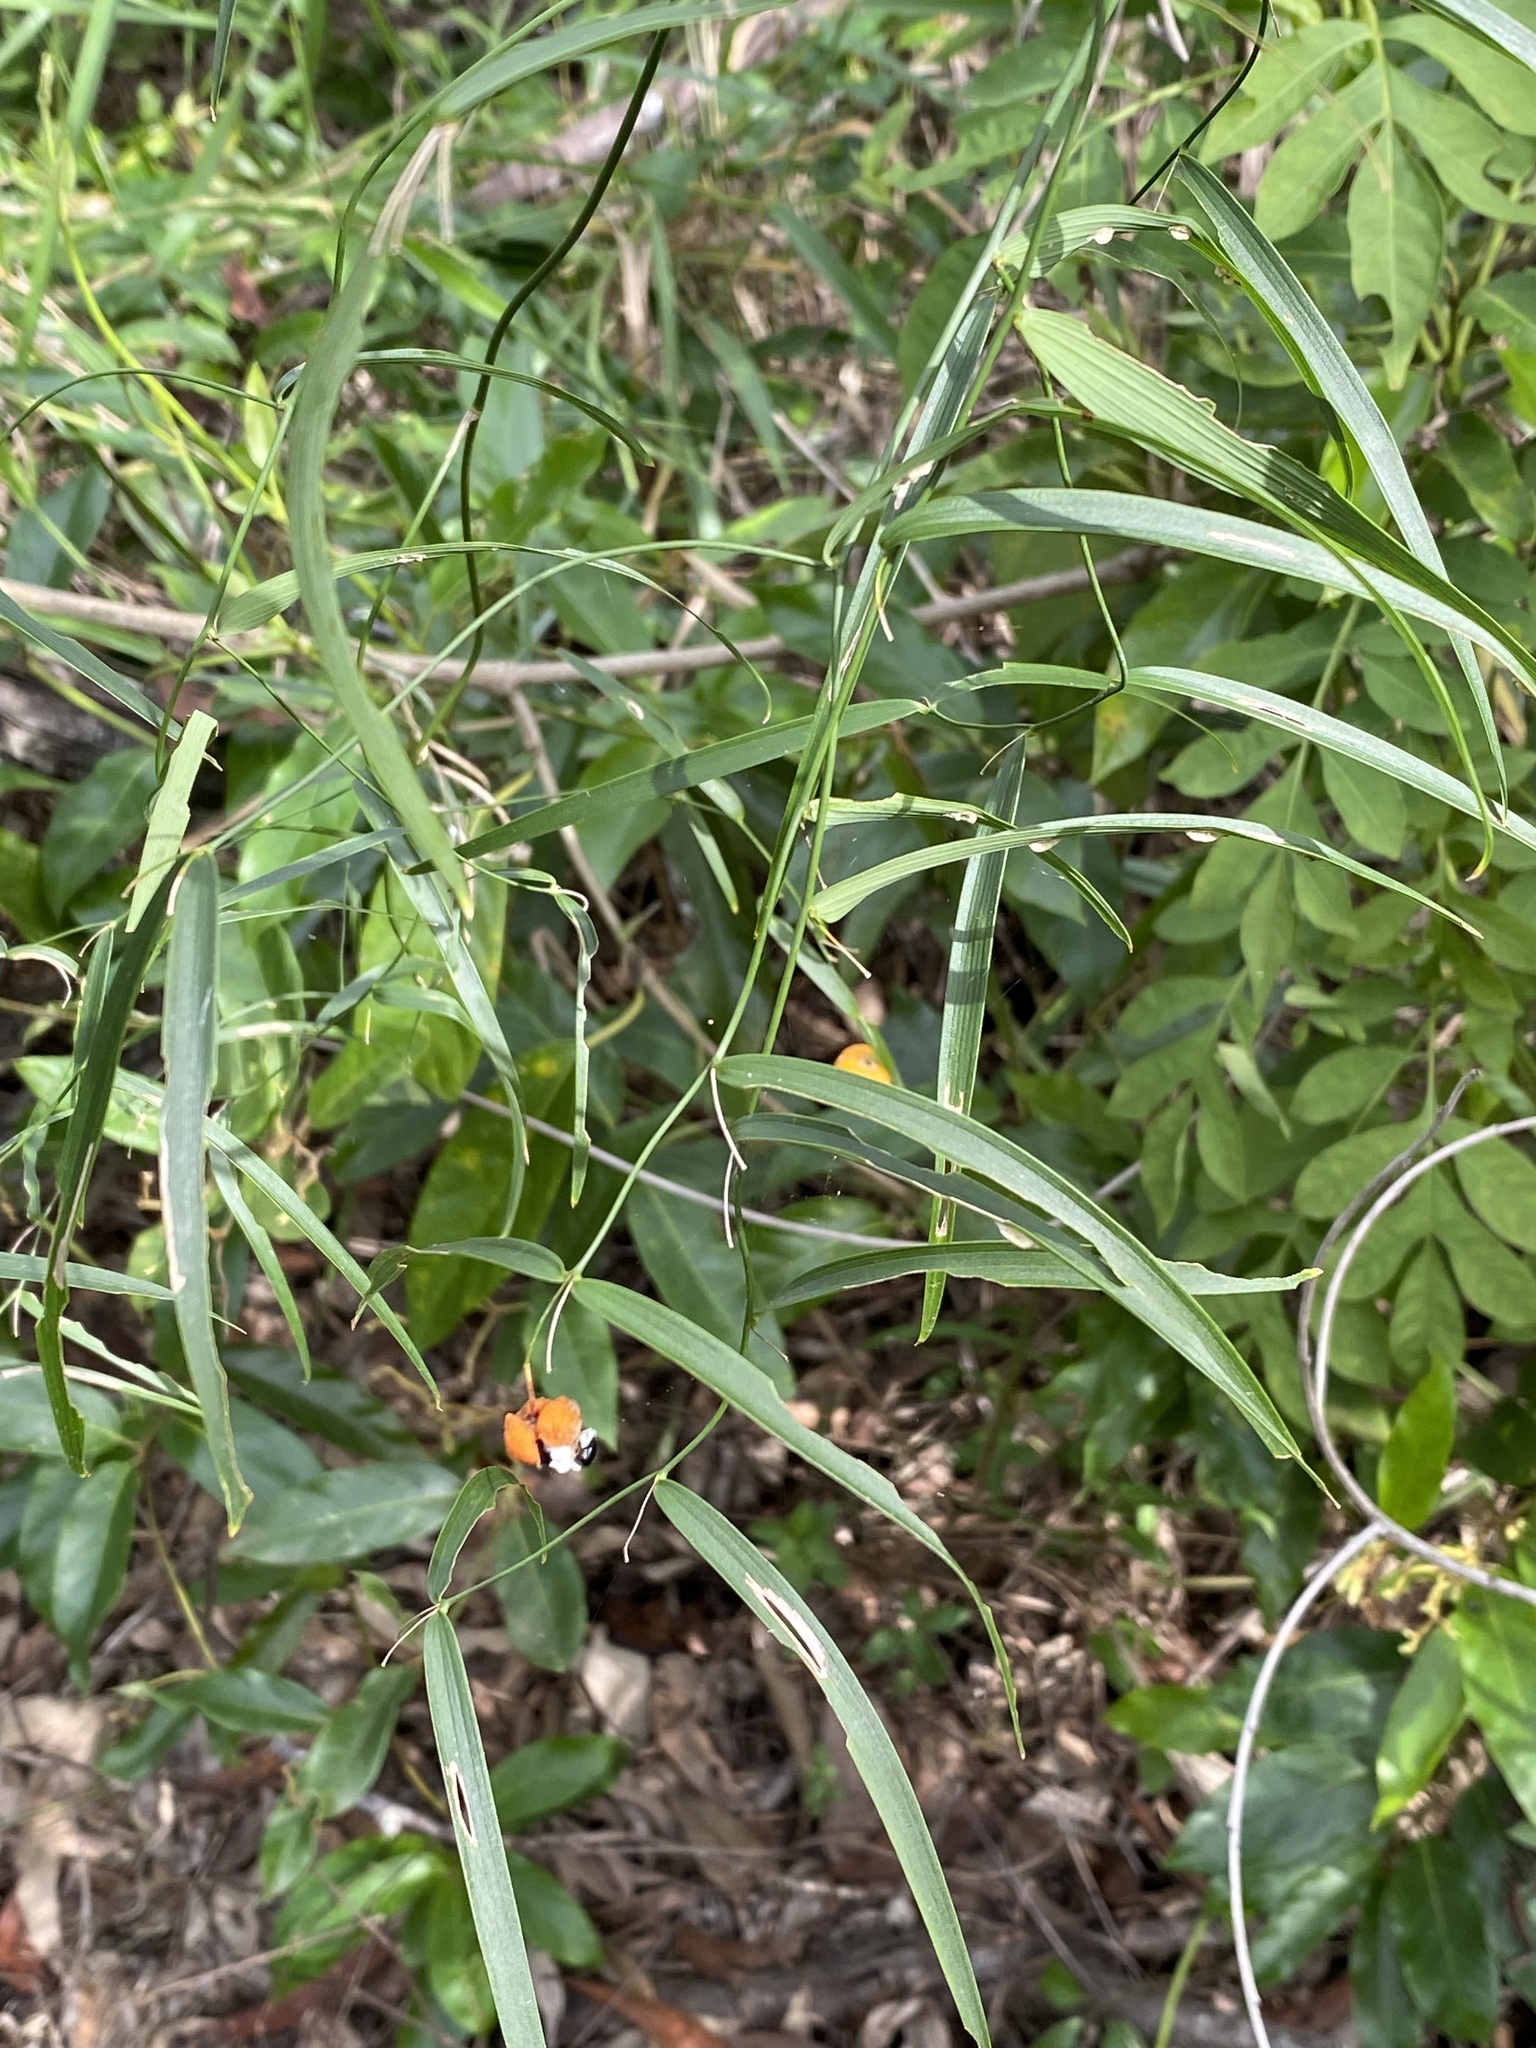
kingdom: Plantae
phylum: Tracheophyta
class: Liliopsida
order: Asparagales
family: Asparagaceae
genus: Eustrephus
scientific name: Eustrephus latifolius
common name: Orangevine
